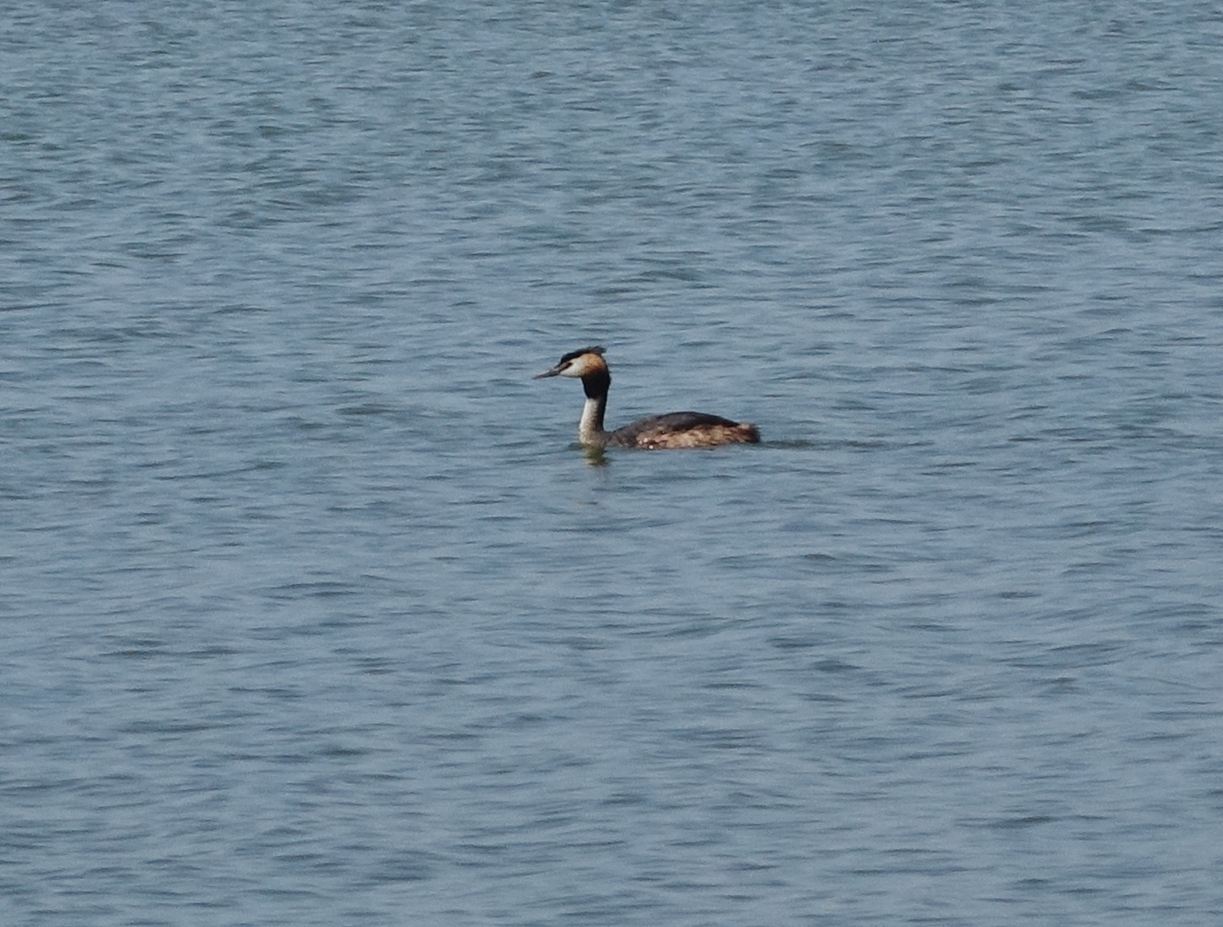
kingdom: Animalia
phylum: Chordata
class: Aves
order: Podicipediformes
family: Podicipedidae
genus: Podiceps
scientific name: Podiceps cristatus
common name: Great crested grebe
